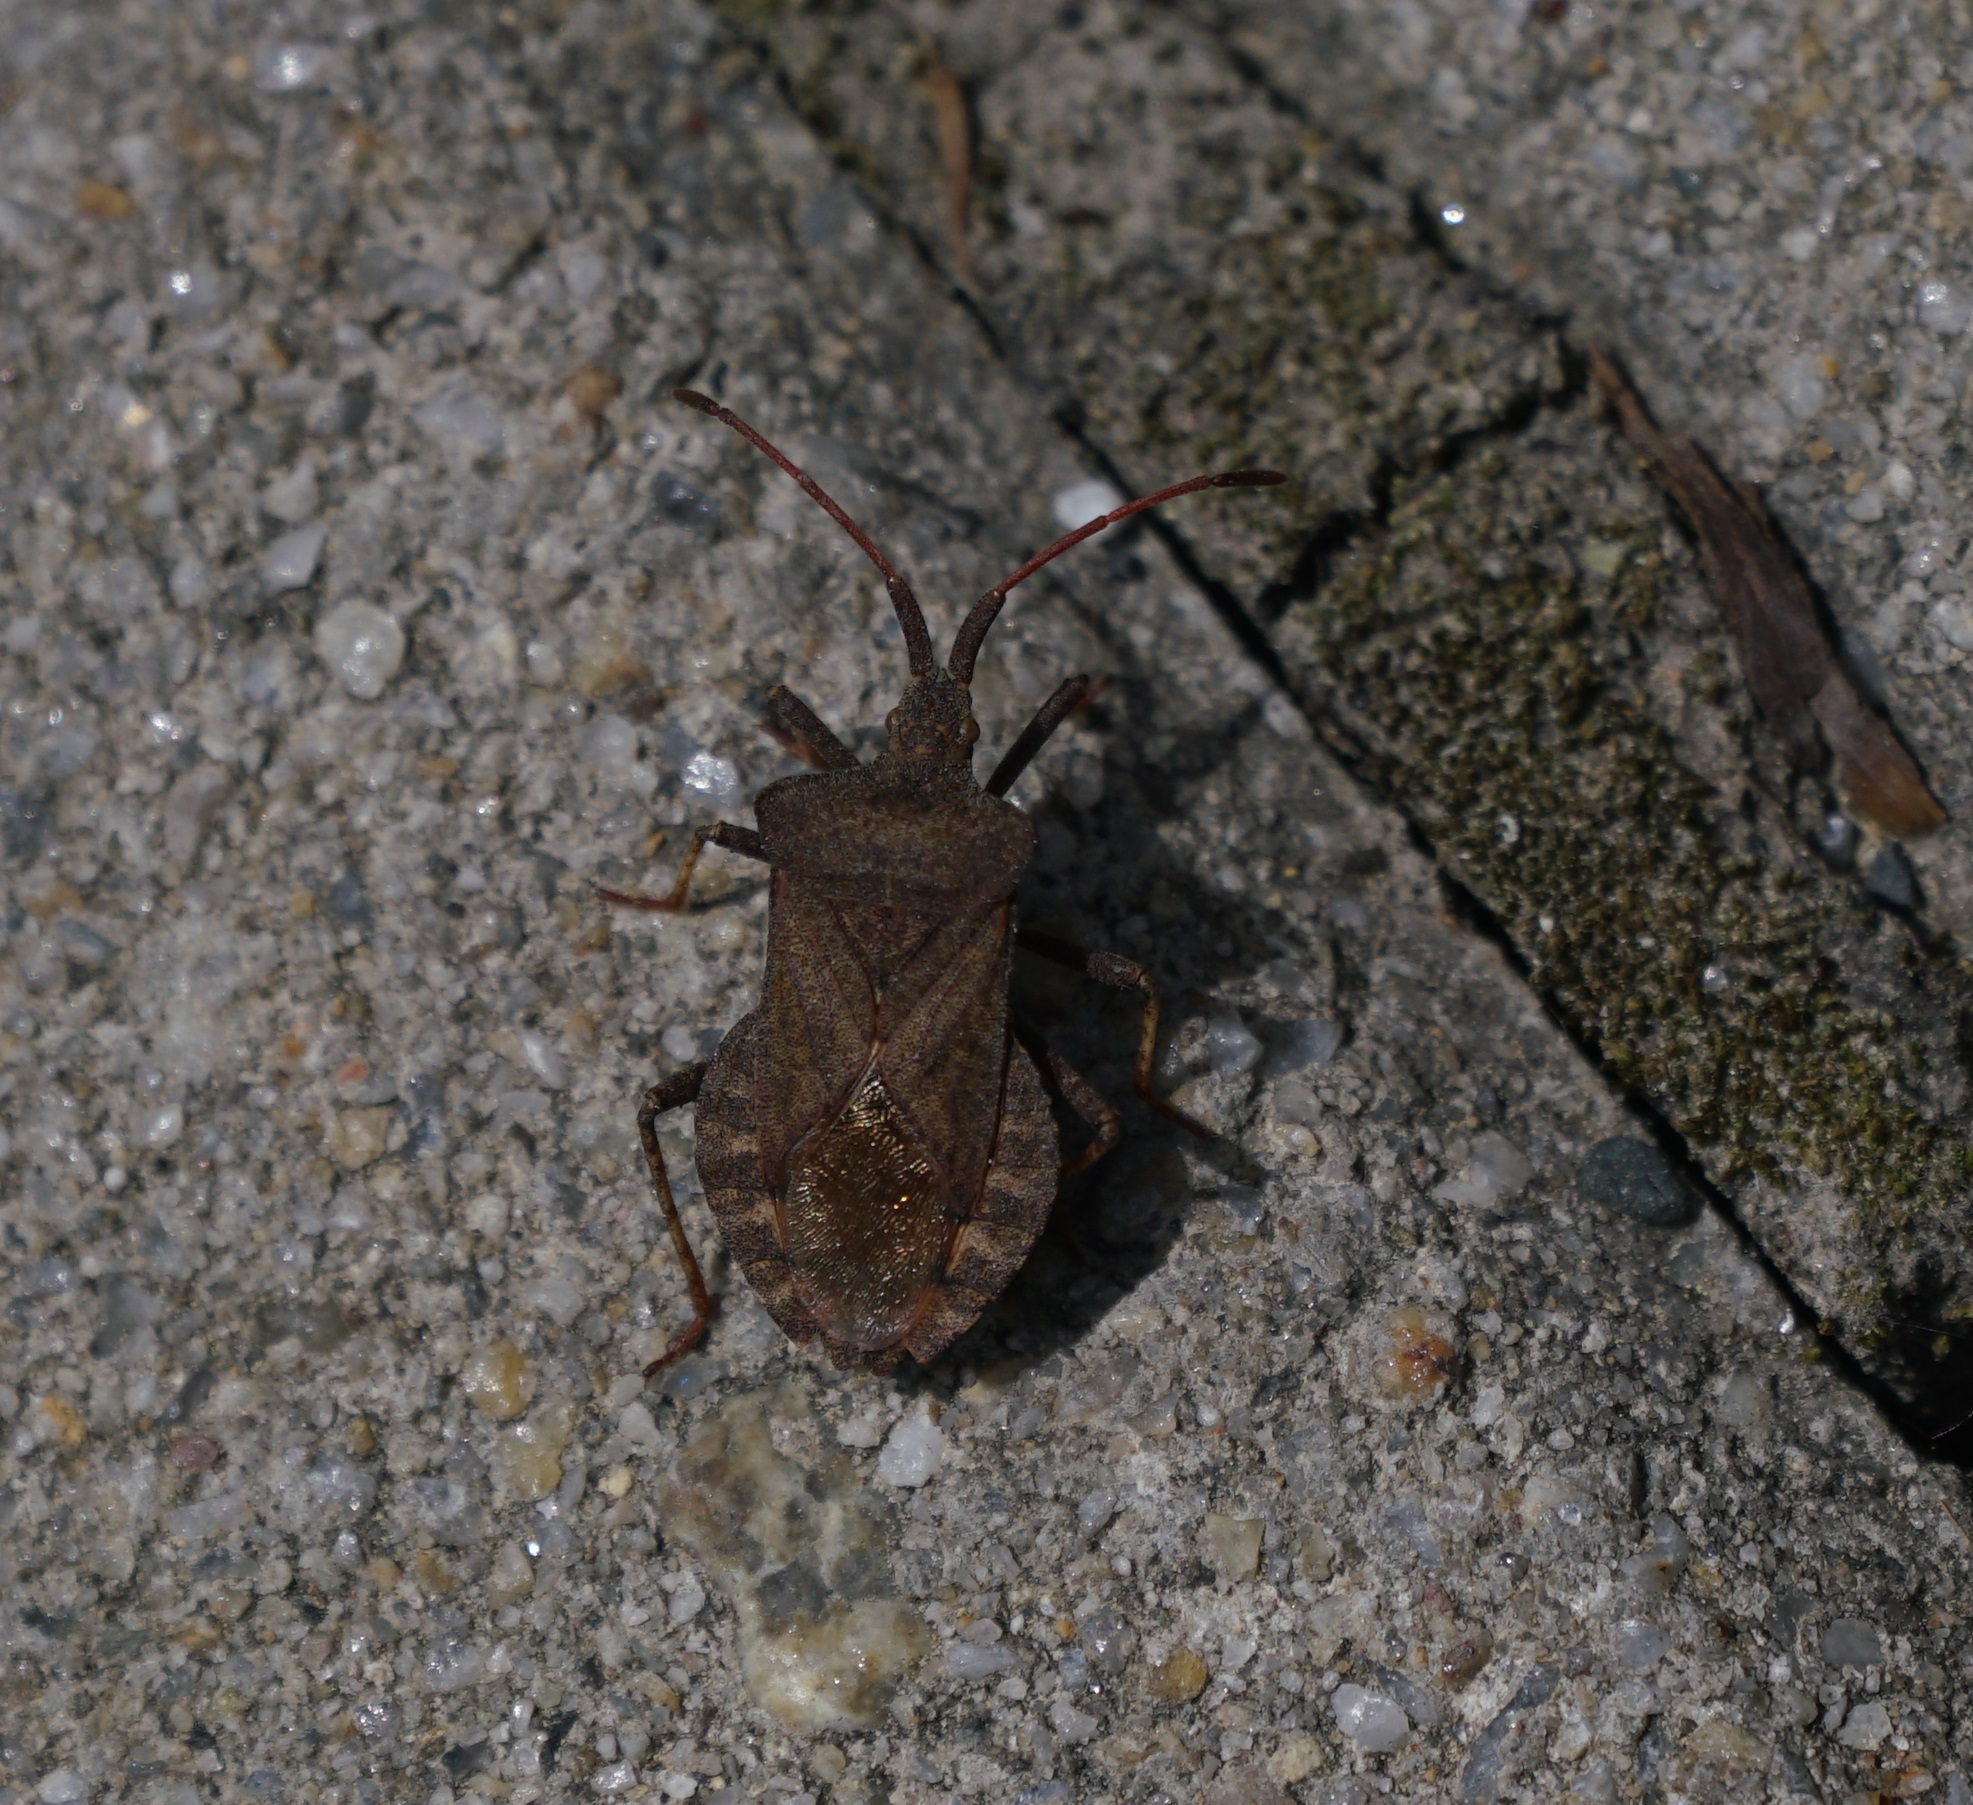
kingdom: Animalia
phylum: Arthropoda
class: Insecta
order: Hemiptera
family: Coreidae
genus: Coreus
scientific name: Coreus marginatus
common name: Dock bug
